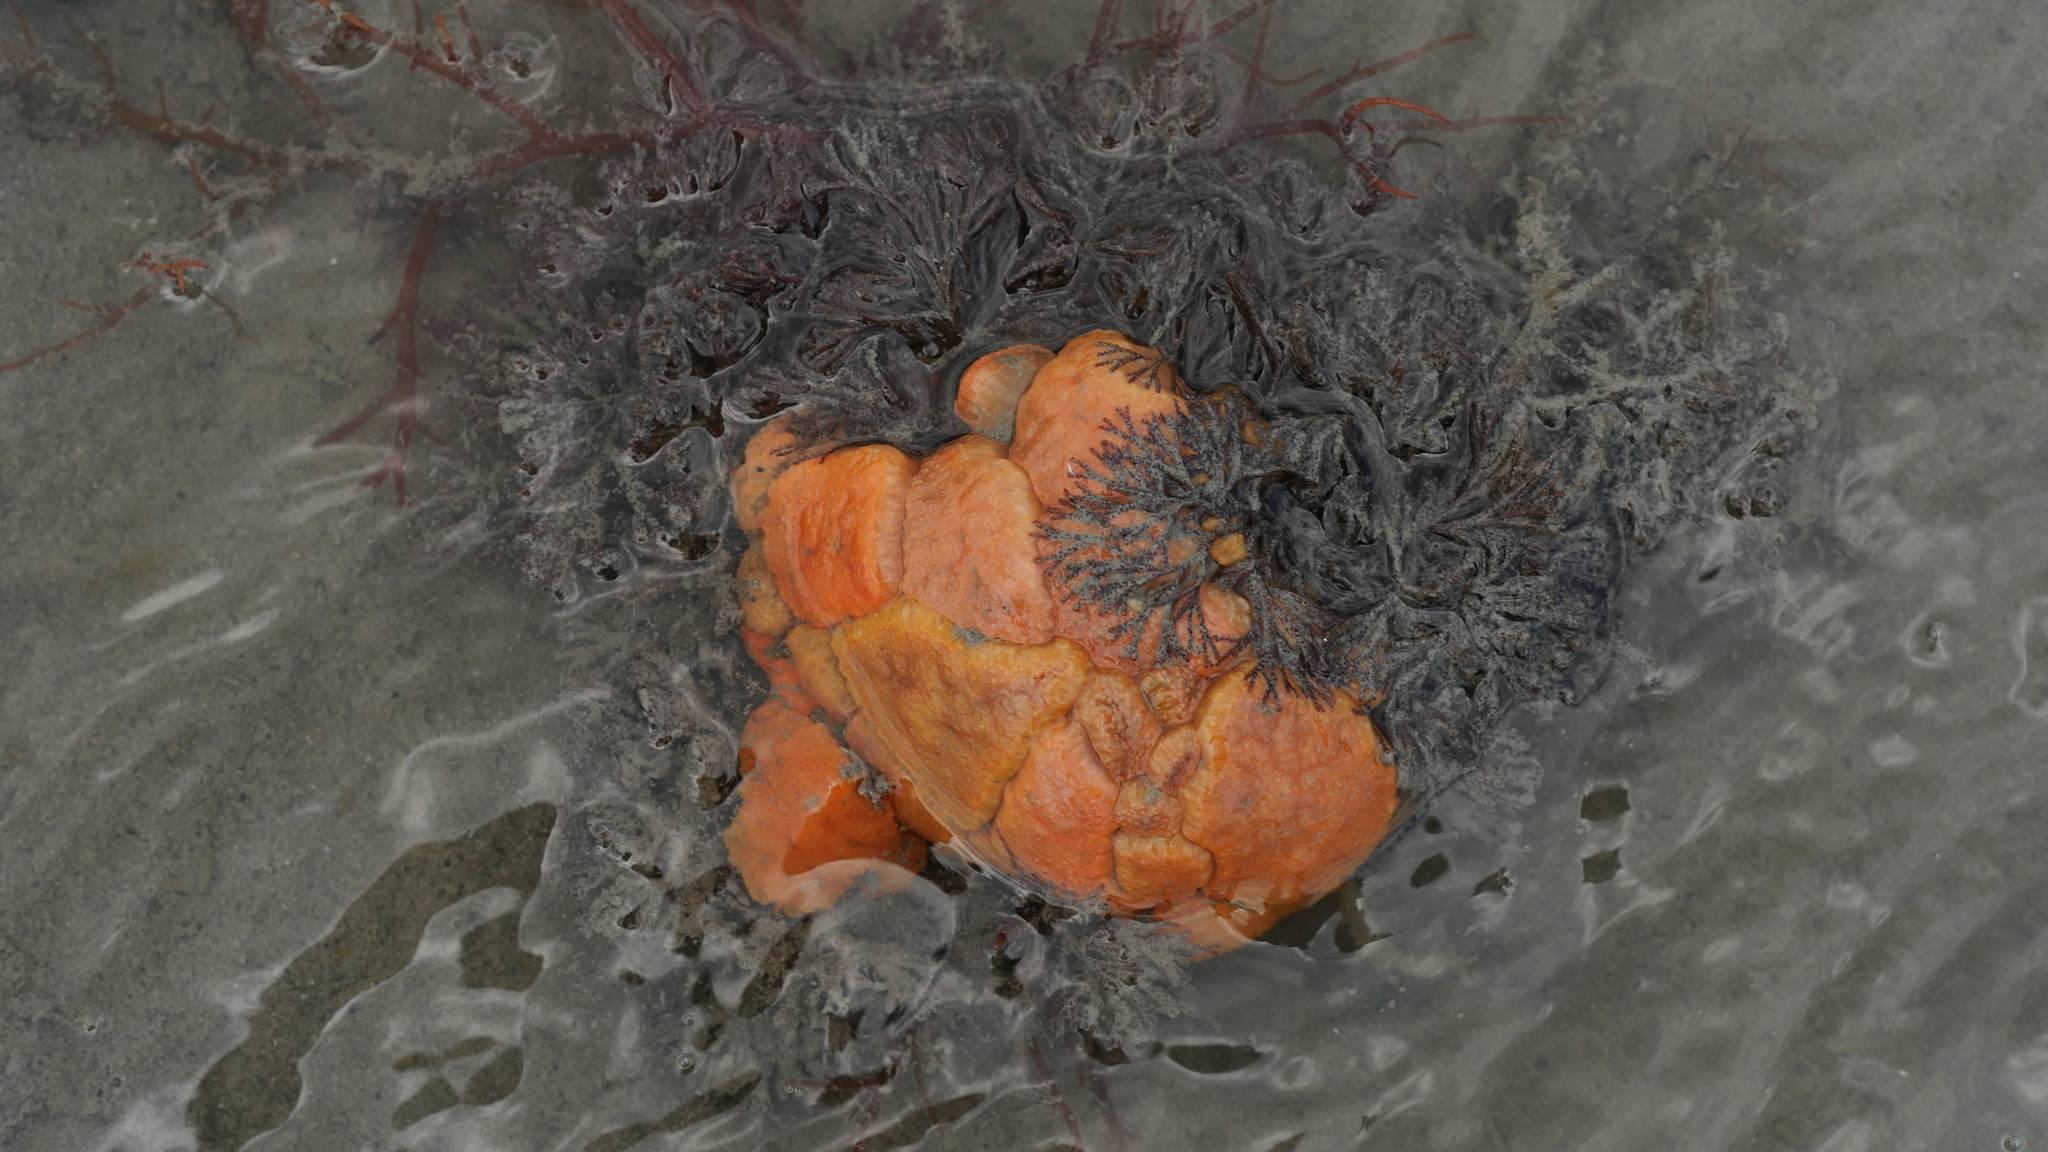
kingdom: Animalia
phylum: Chordata
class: Ascidiacea
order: Aplousobranchia
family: Polyclinidae
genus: Aplidium
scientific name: Aplidium stellatum
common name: Atlantic sea pork
